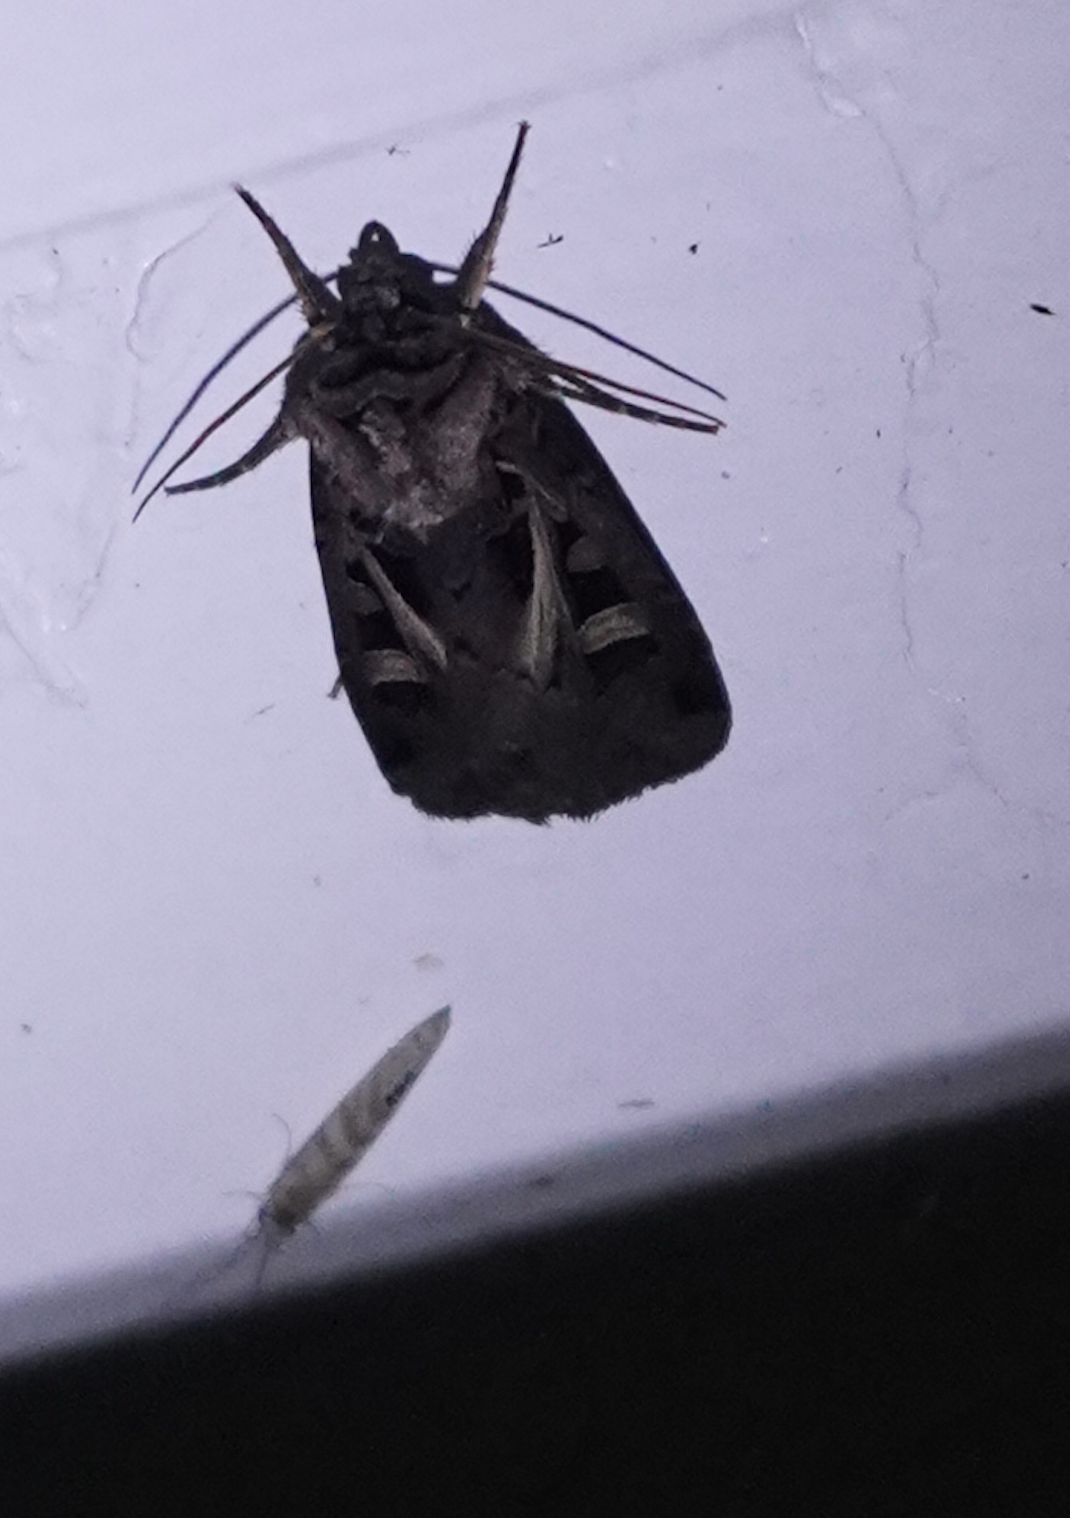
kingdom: Animalia
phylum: Arthropoda
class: Insecta
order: Lepidoptera
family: Noctuidae
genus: Feltia
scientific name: Feltia herilis
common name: Master's dart
